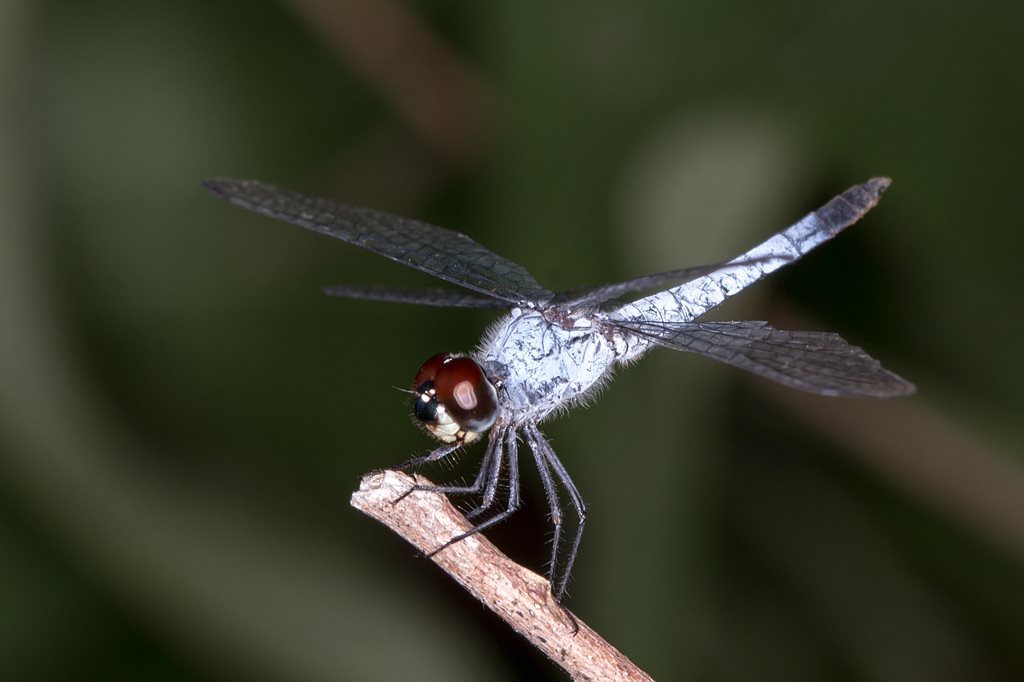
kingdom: Animalia
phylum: Arthropoda
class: Insecta
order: Odonata
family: Libellulidae
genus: Brachydiplax
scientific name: Brachydiplax denticauda
